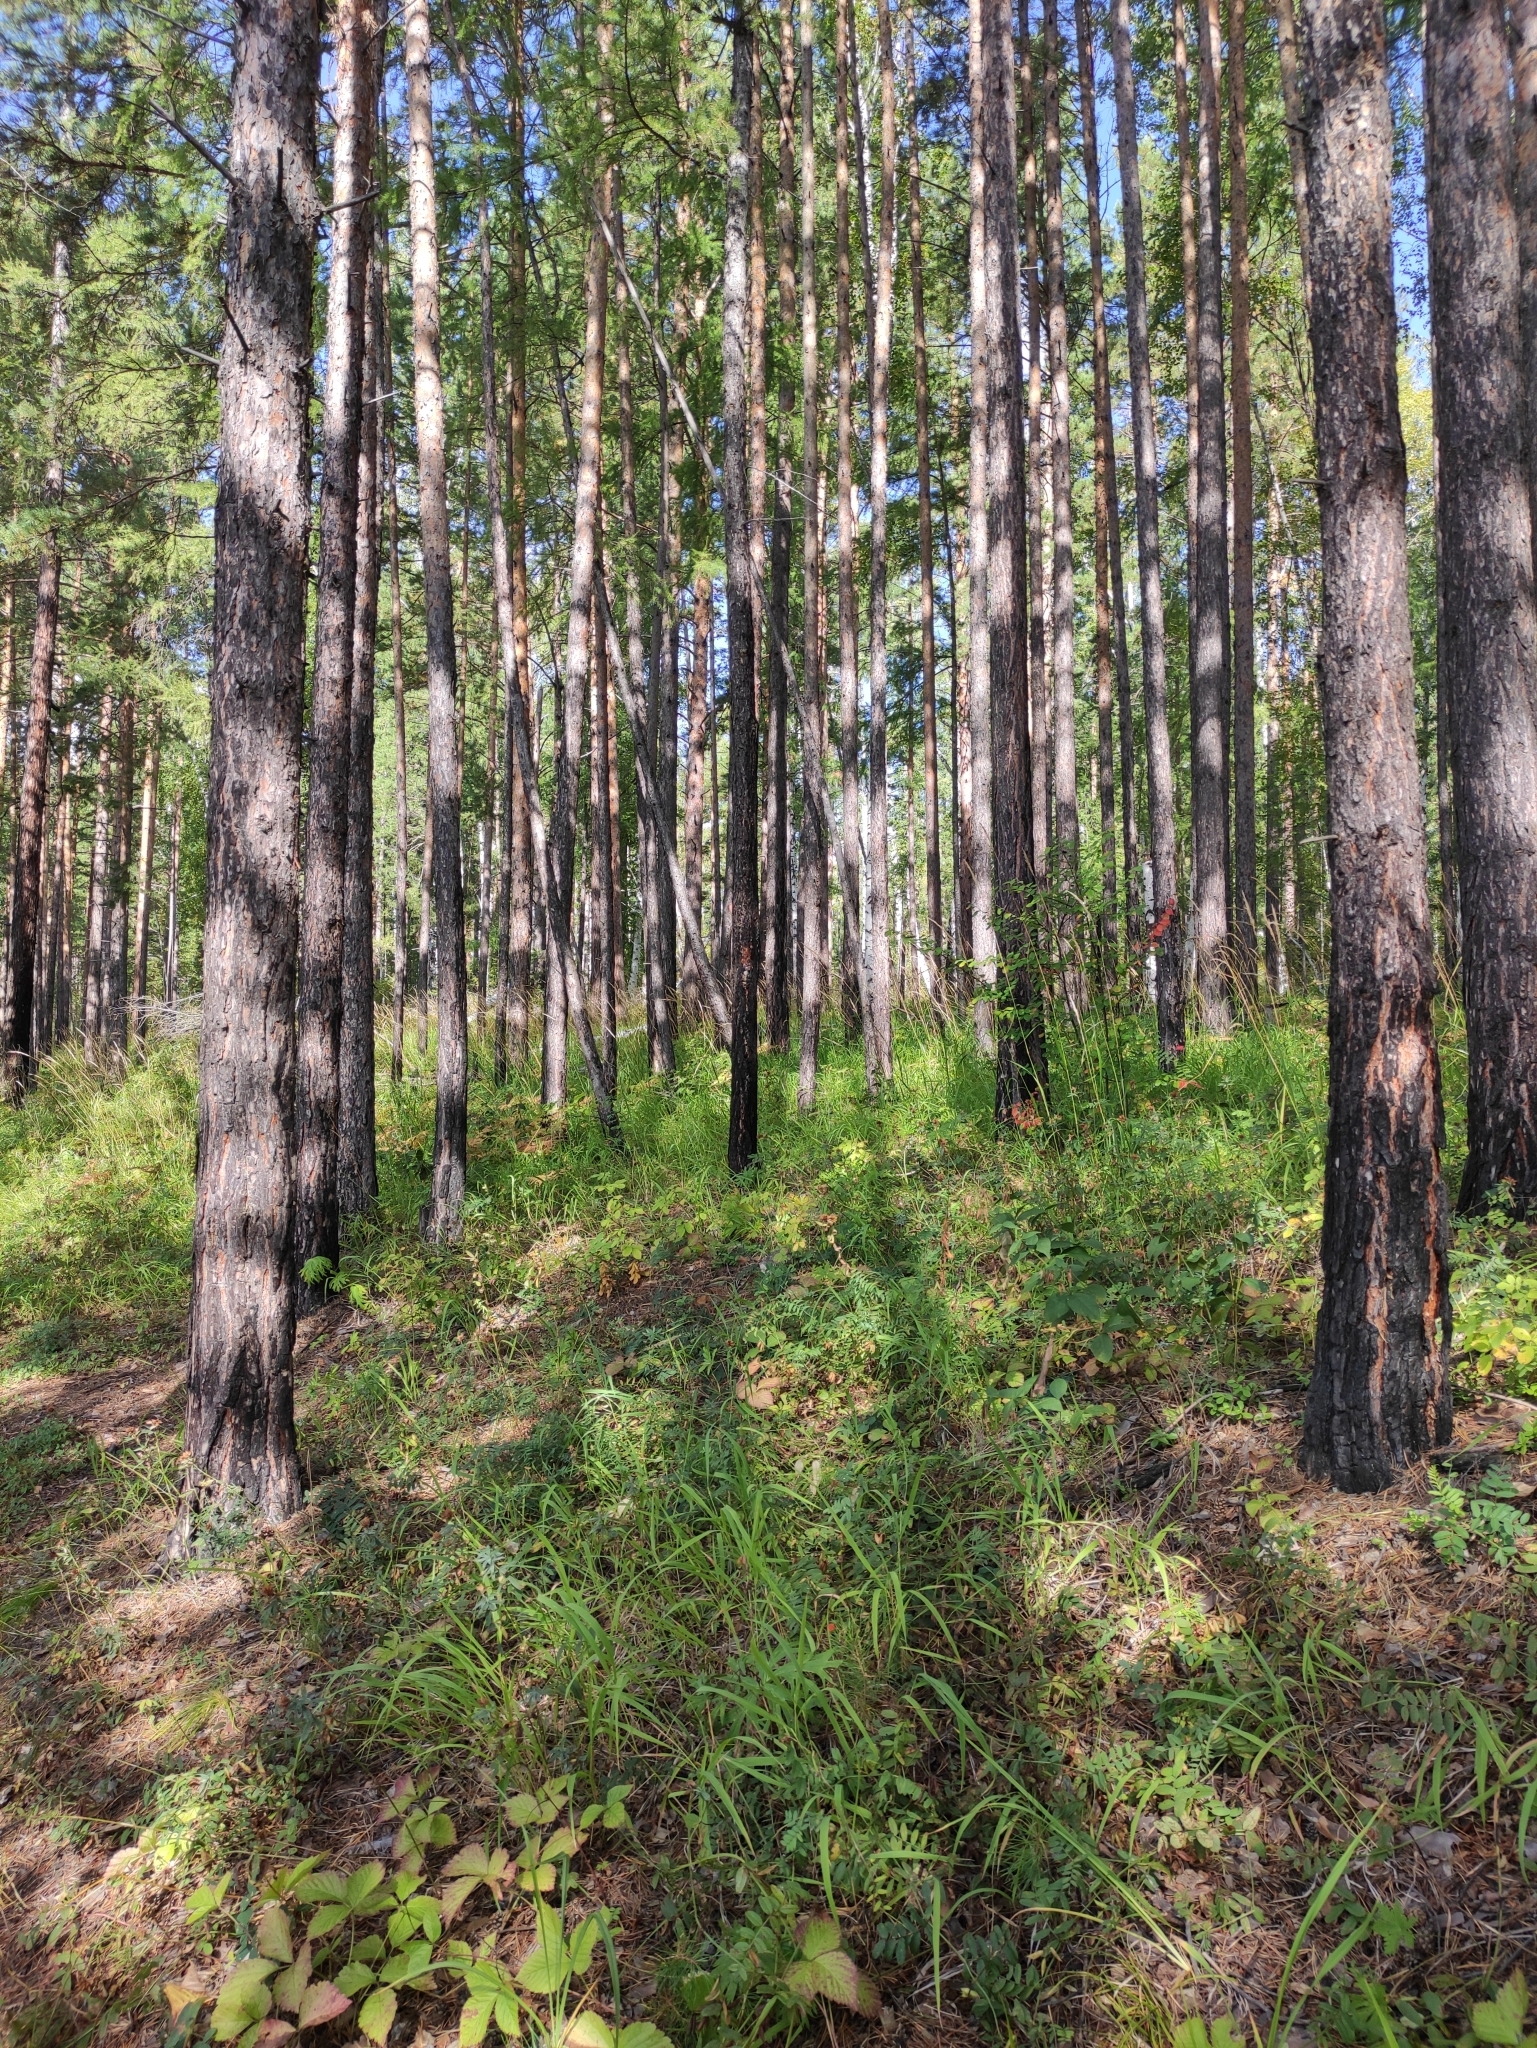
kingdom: Plantae
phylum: Tracheophyta
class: Pinopsida
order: Pinales
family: Pinaceae
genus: Pinus
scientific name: Pinus sylvestris
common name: Scots pine
